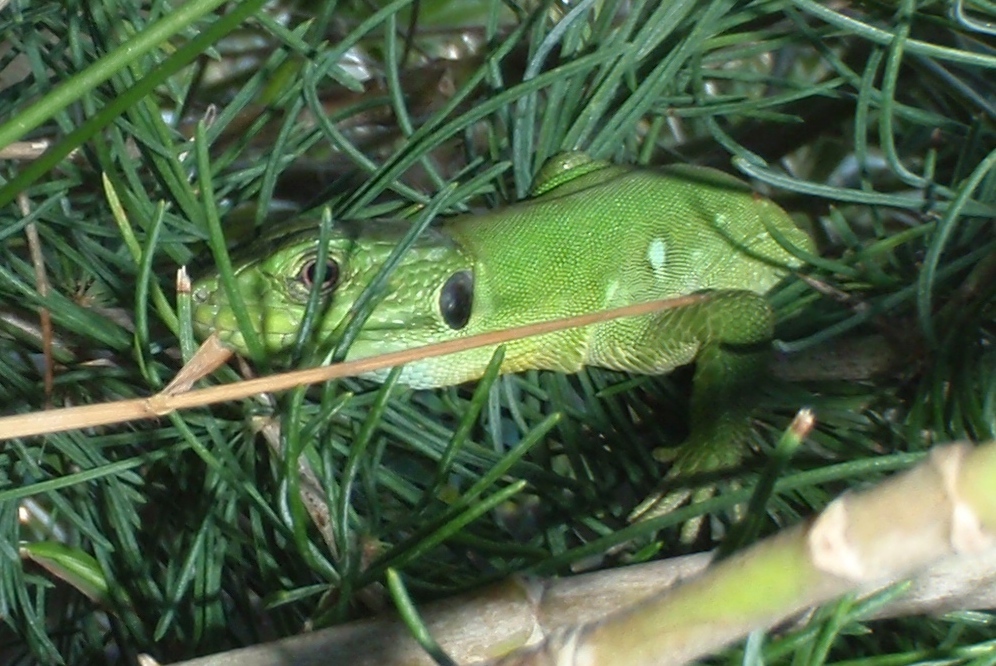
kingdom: Animalia
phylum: Chordata
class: Squamata
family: Lacertidae
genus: Timon
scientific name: Timon pater
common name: North african ocellated lizard
